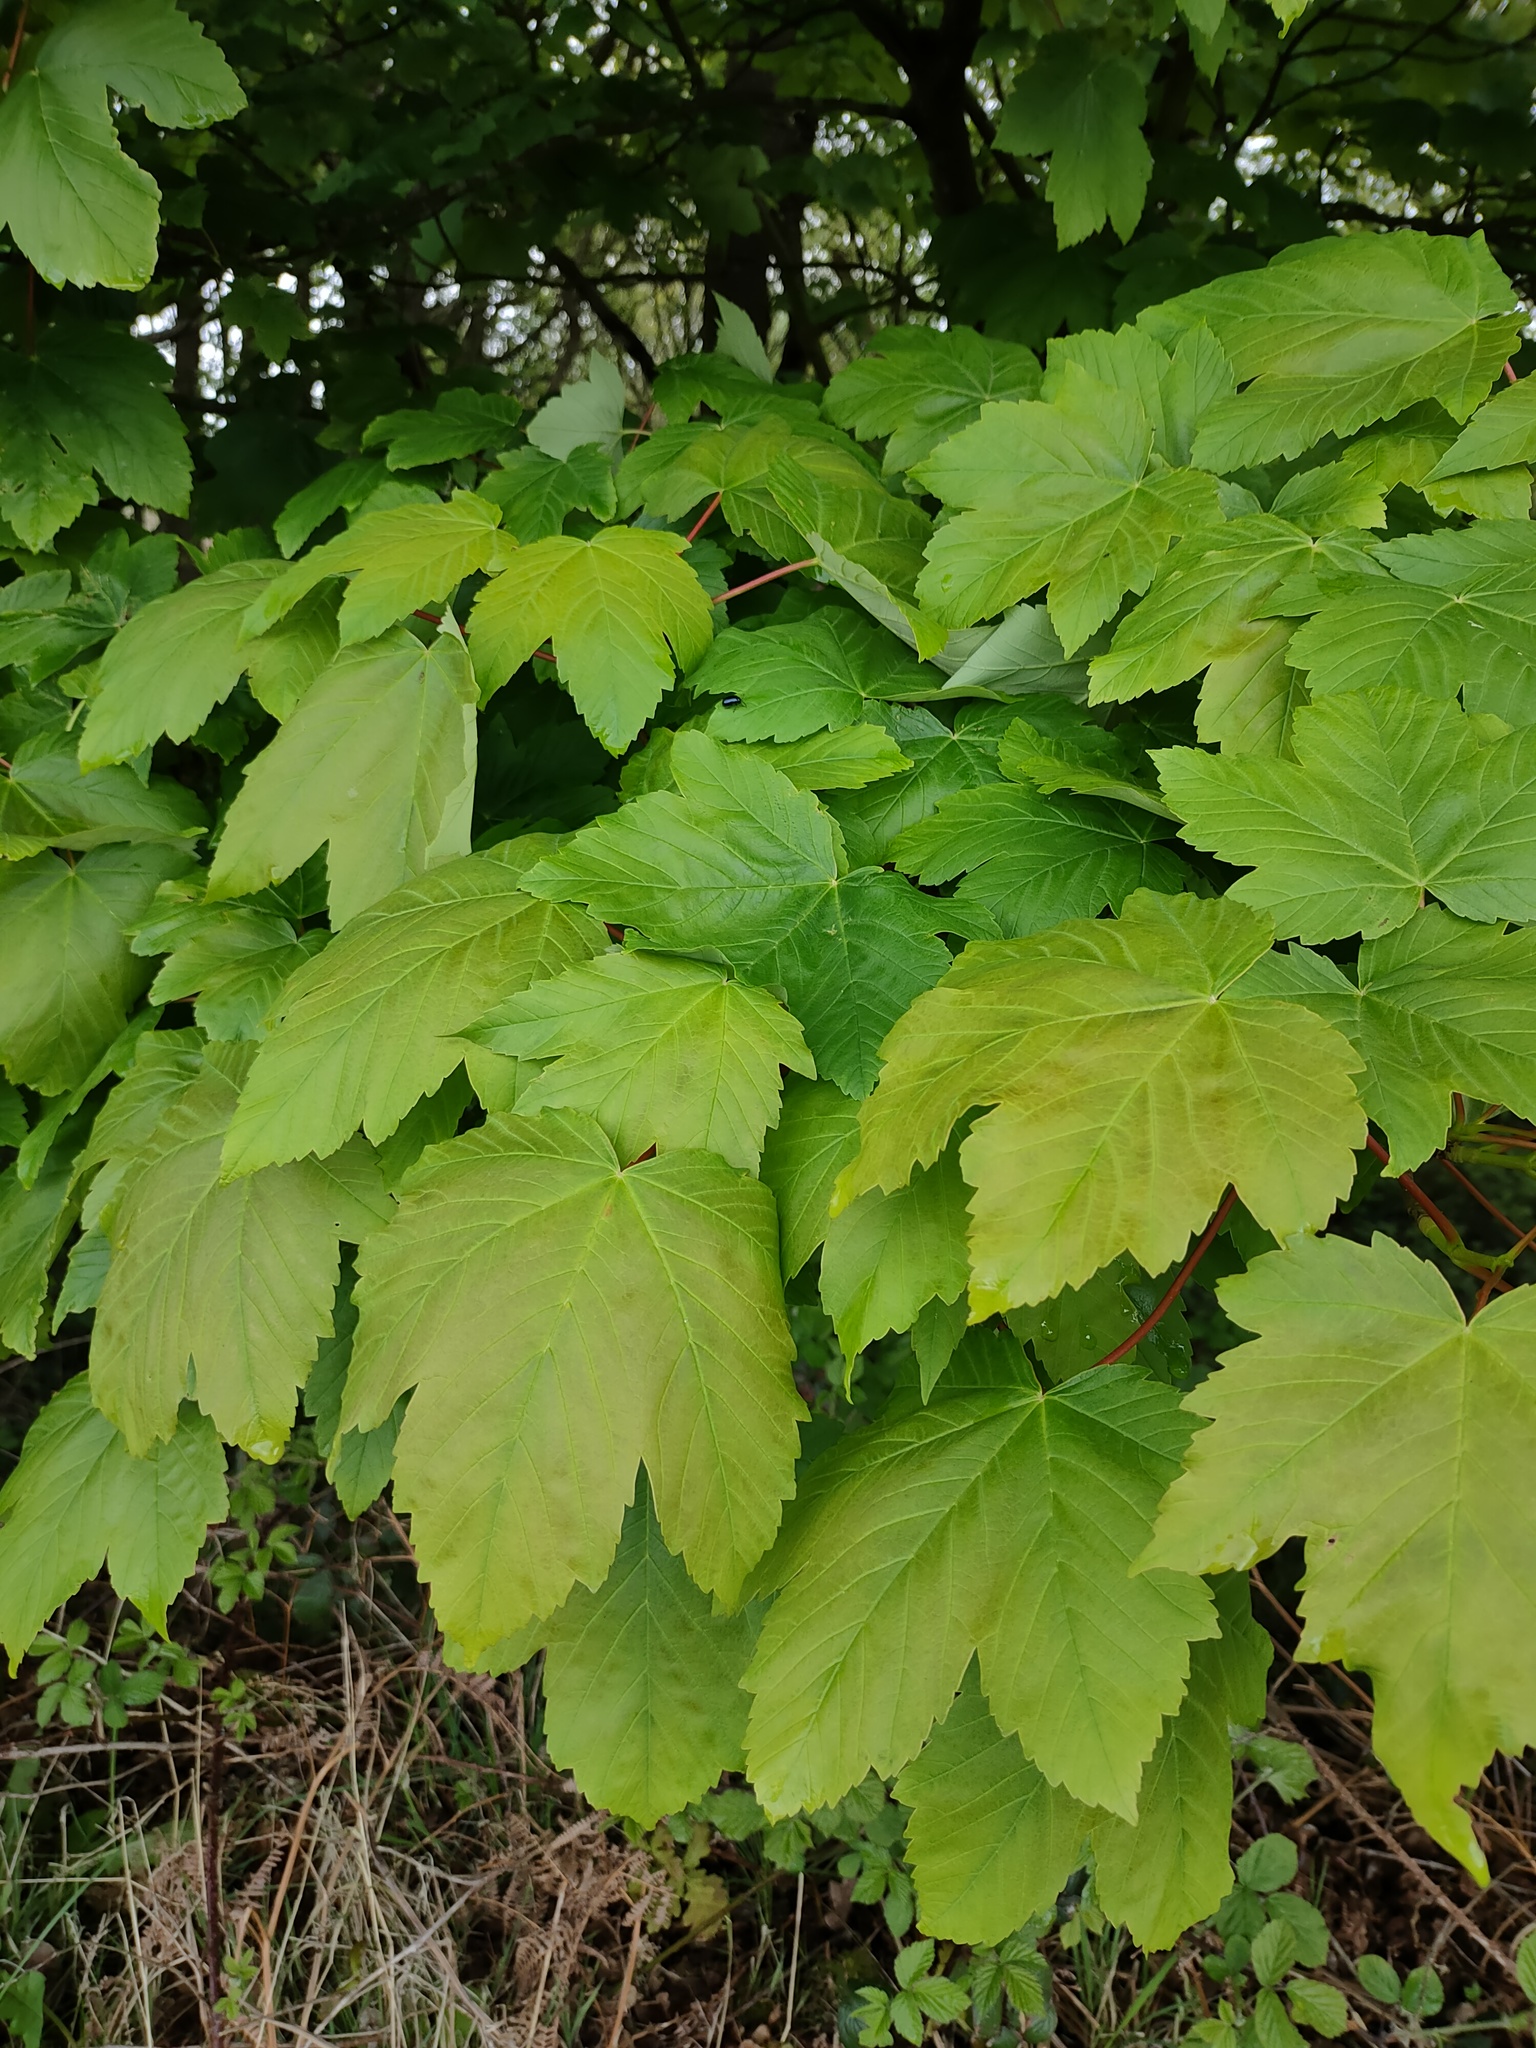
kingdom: Plantae
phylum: Tracheophyta
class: Magnoliopsida
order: Sapindales
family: Sapindaceae
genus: Acer
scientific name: Acer pseudoplatanus
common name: Sycamore
